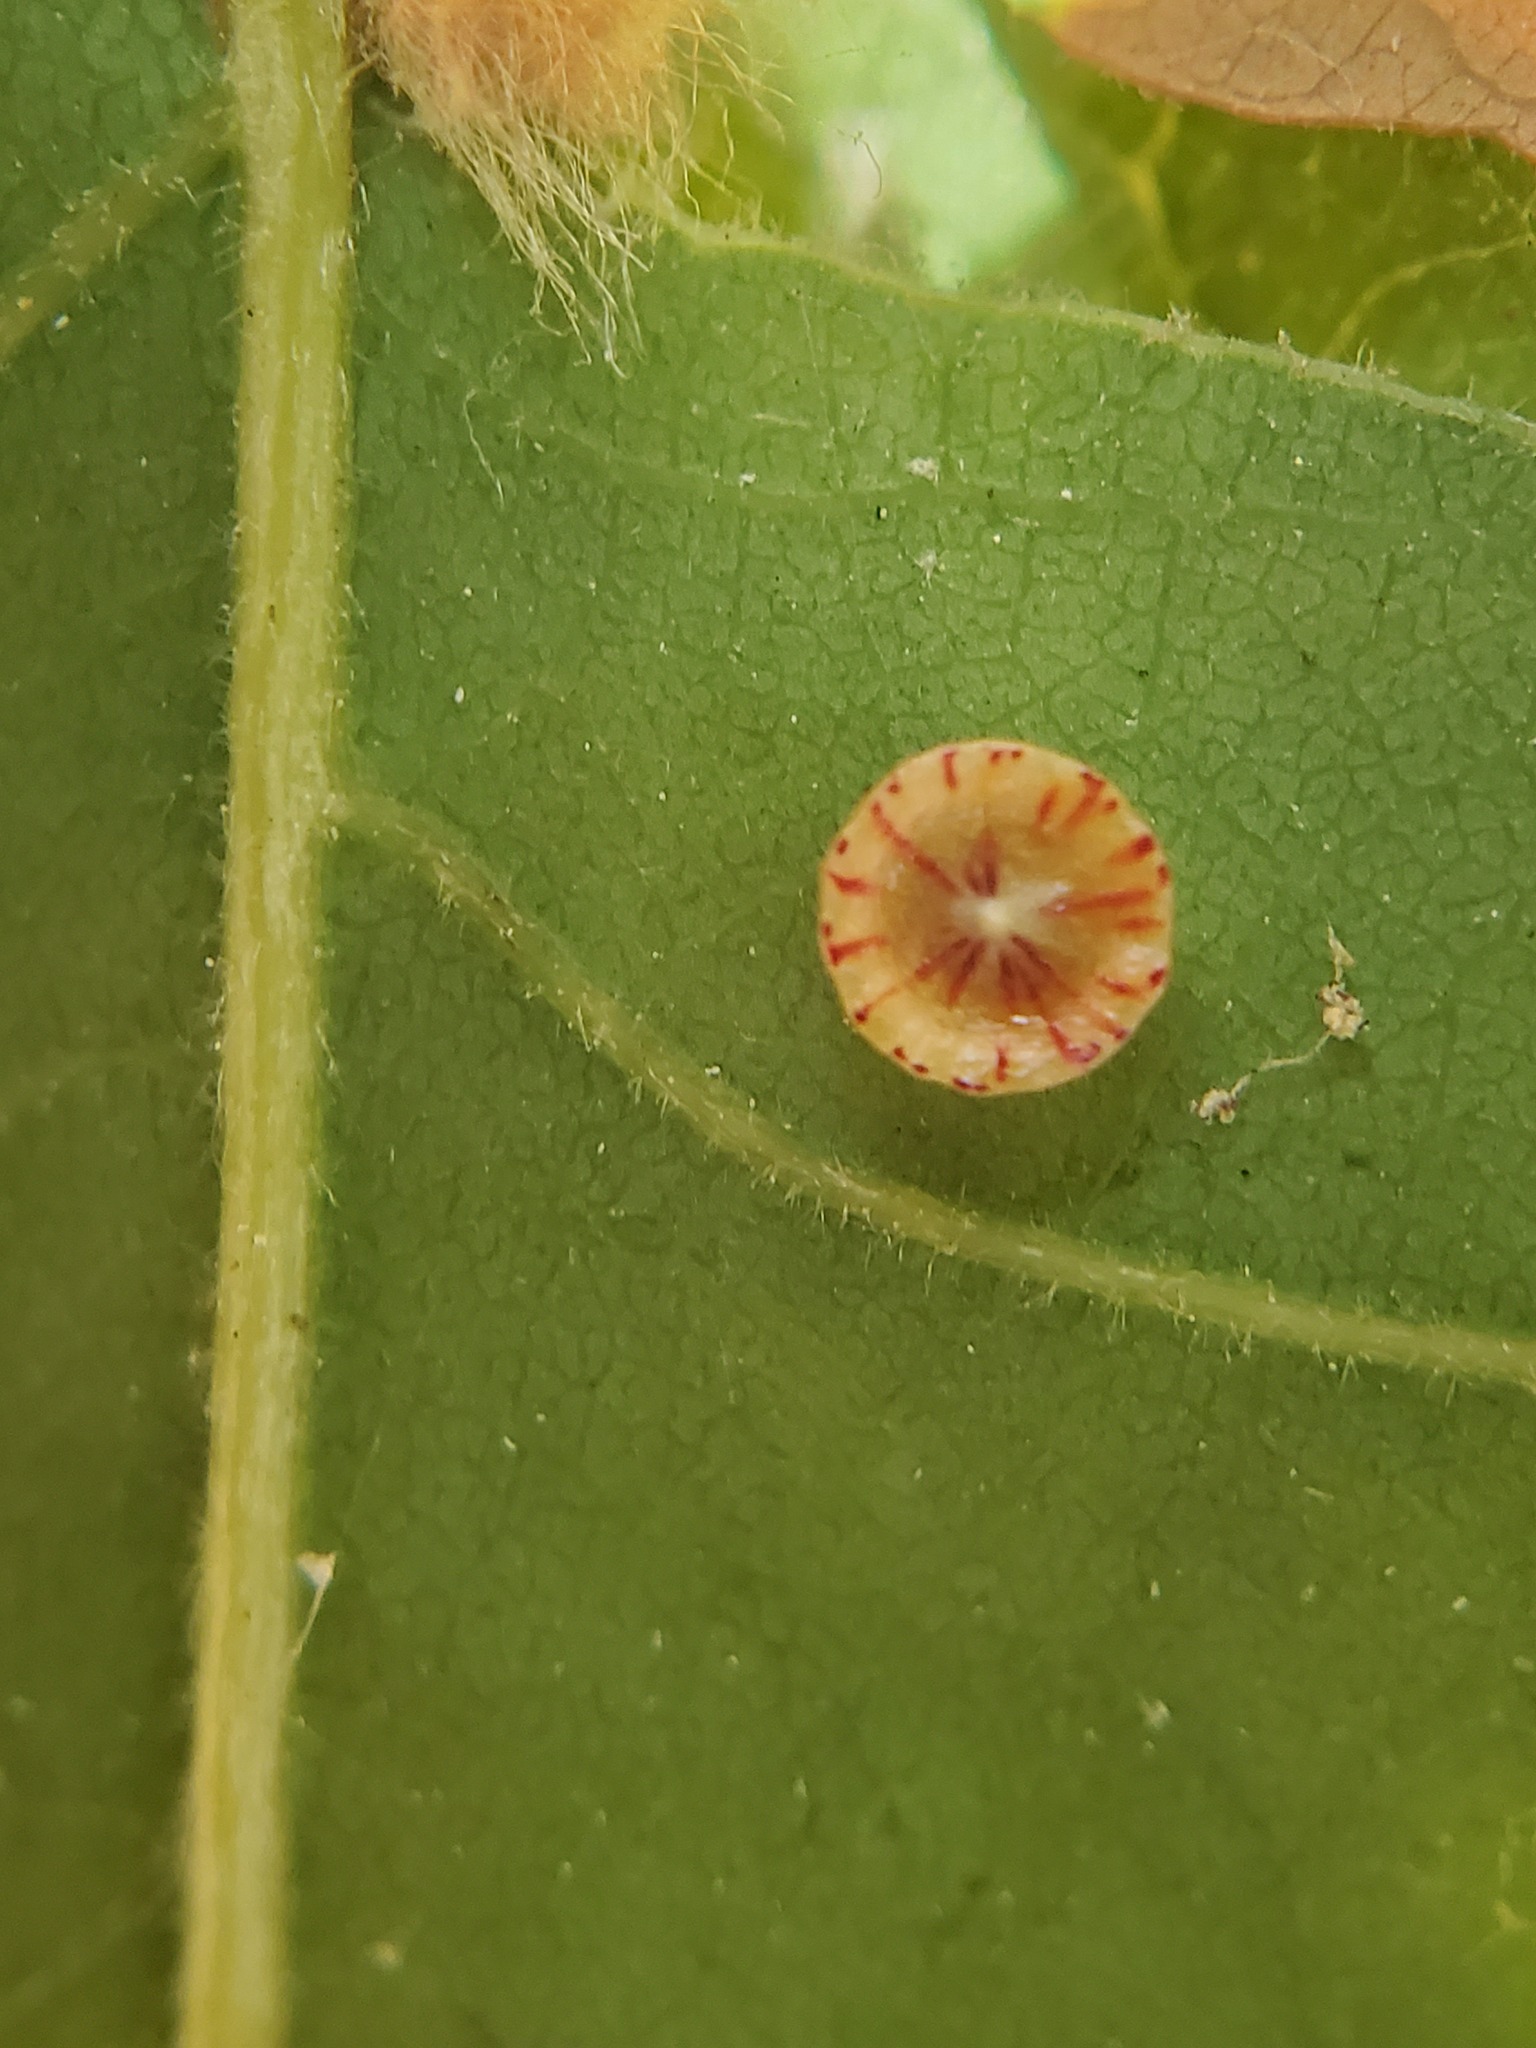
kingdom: Animalia
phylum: Arthropoda
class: Insecta
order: Hymenoptera
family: Cynipidae
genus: Andricus
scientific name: Andricus
